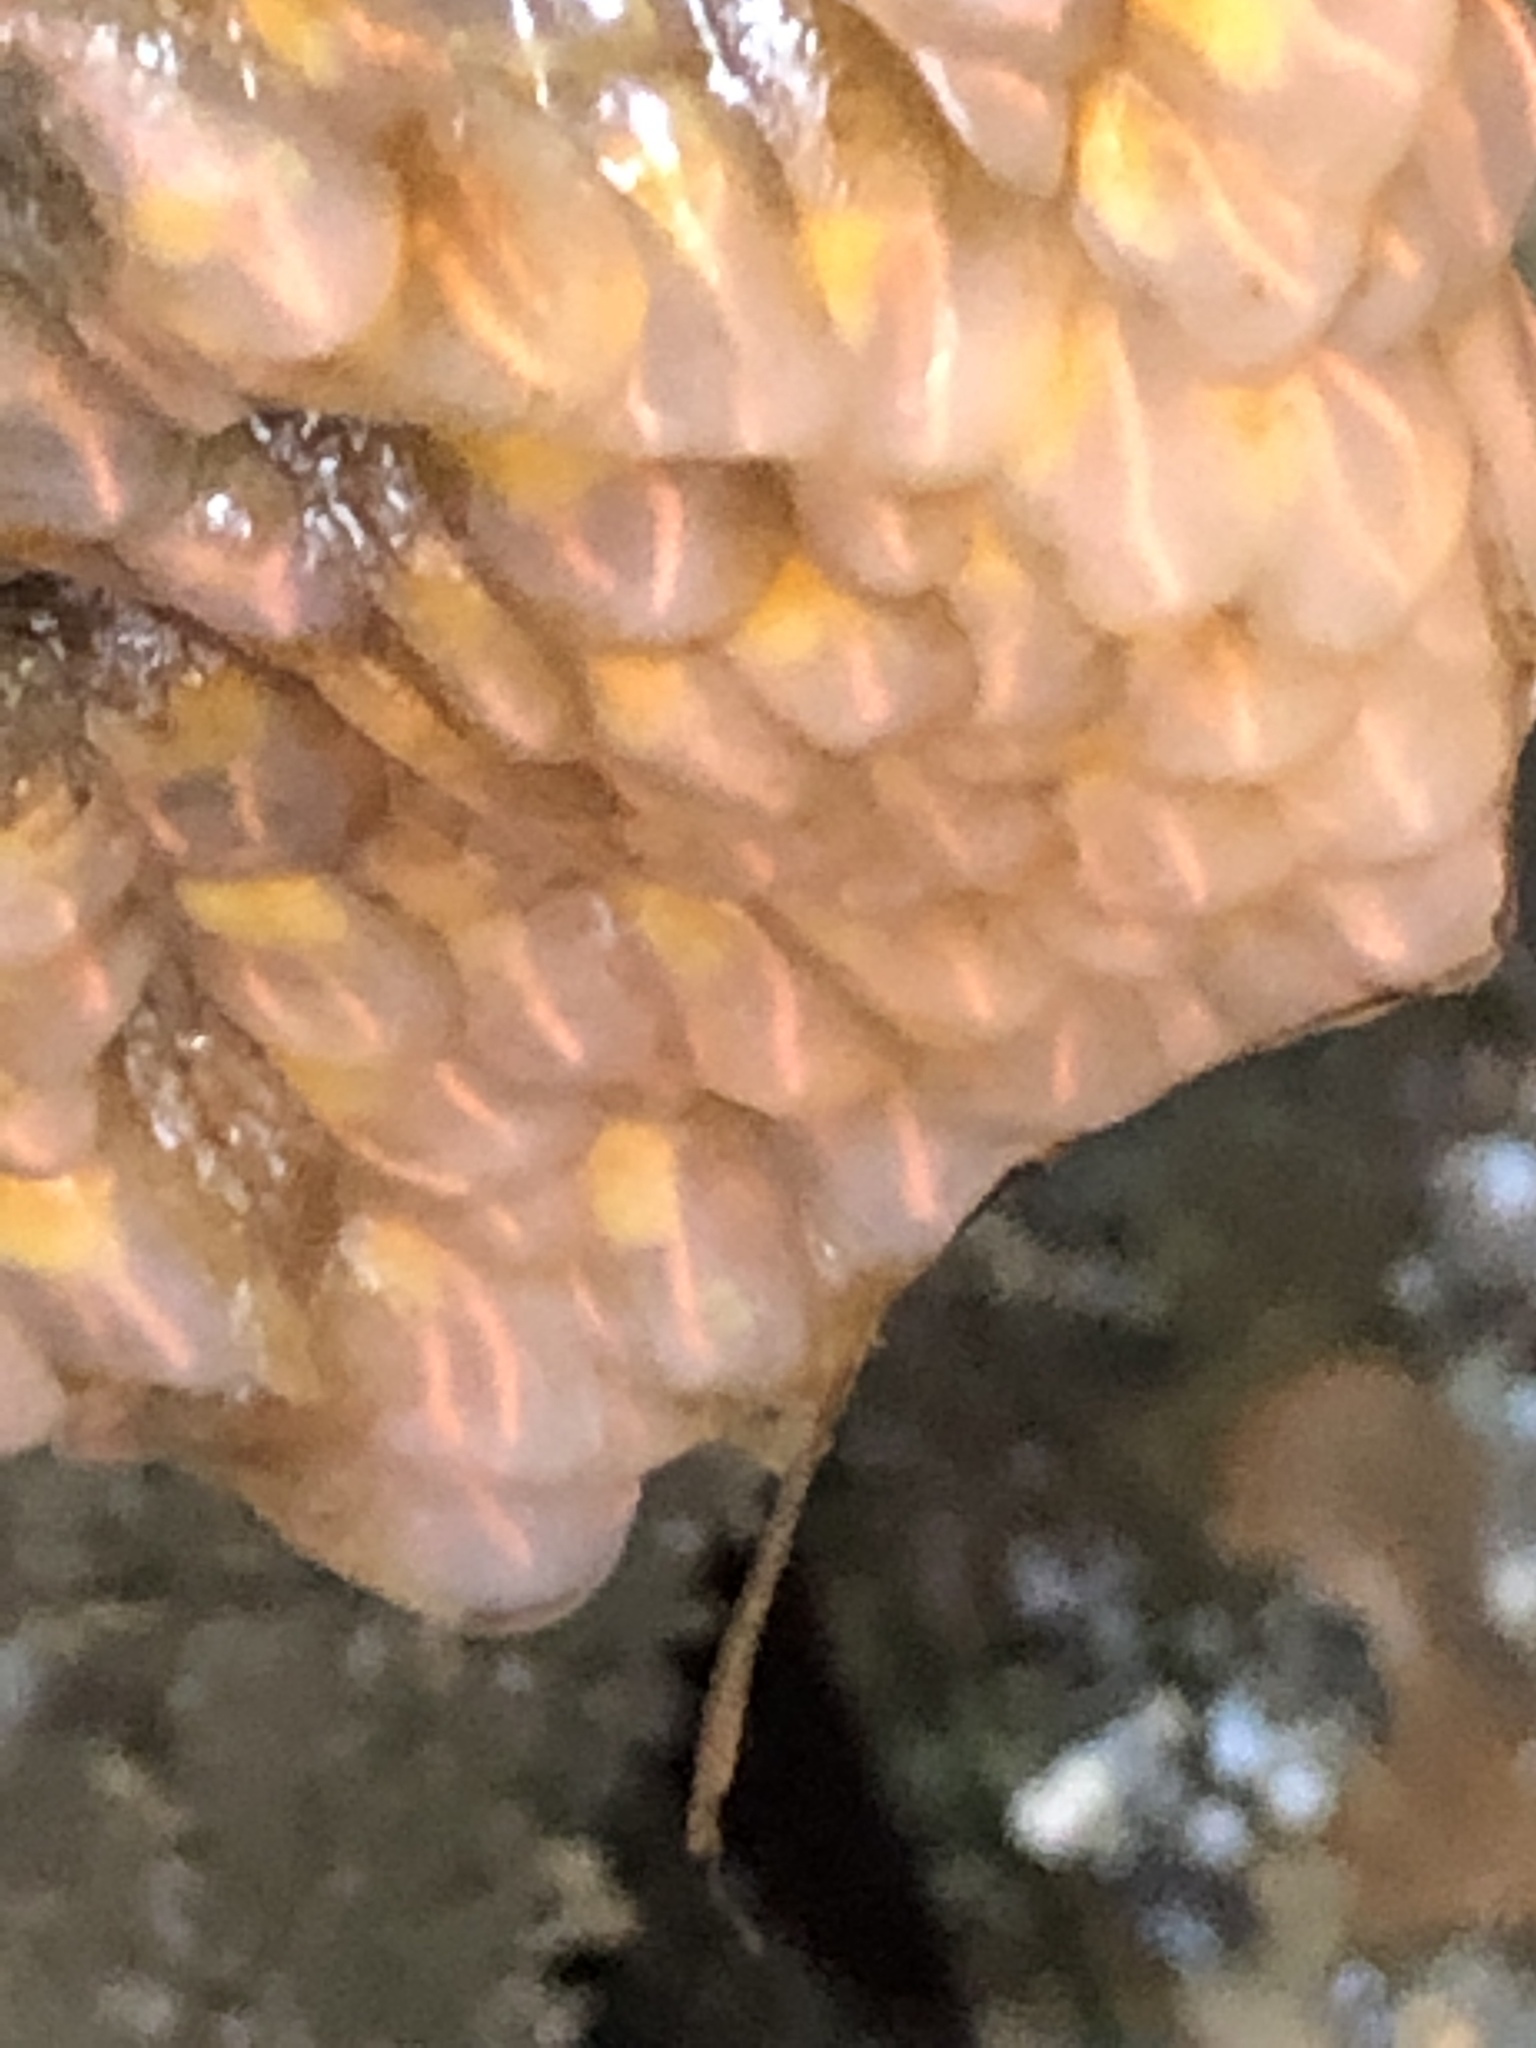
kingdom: Animalia
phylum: Chordata
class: Ascidiacea
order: Aplousobranchia
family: Clavelinidae
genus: Clavelina
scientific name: Clavelina huntsmani
